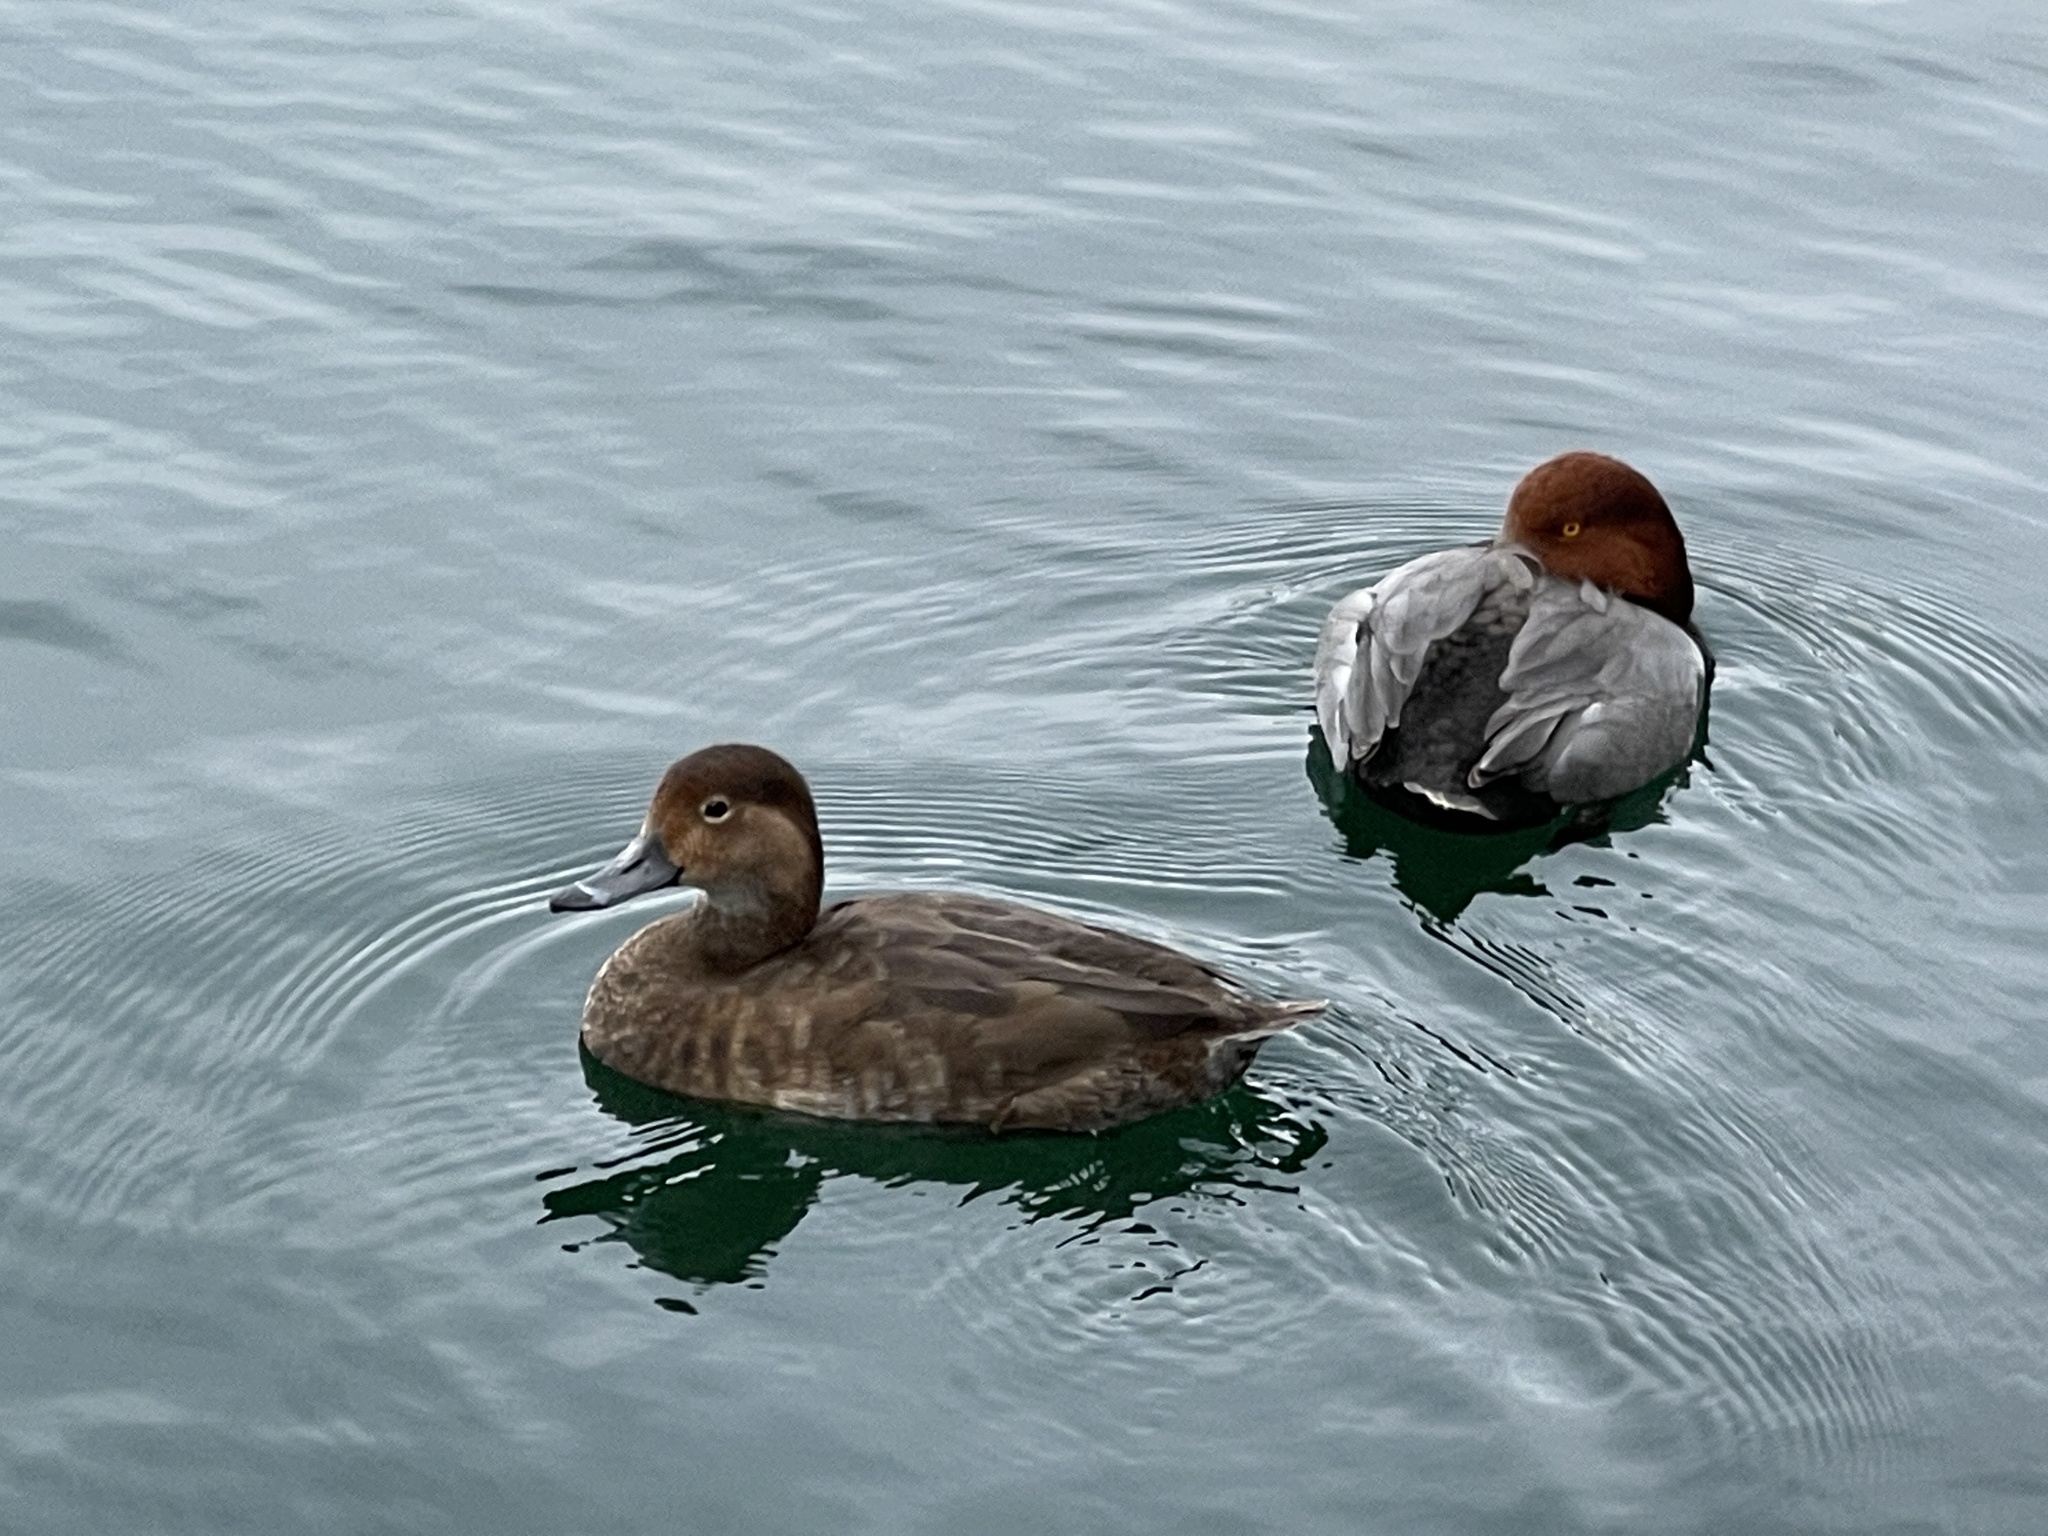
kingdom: Animalia
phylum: Chordata
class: Aves
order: Anseriformes
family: Anatidae
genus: Aythya
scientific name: Aythya americana
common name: Redhead
